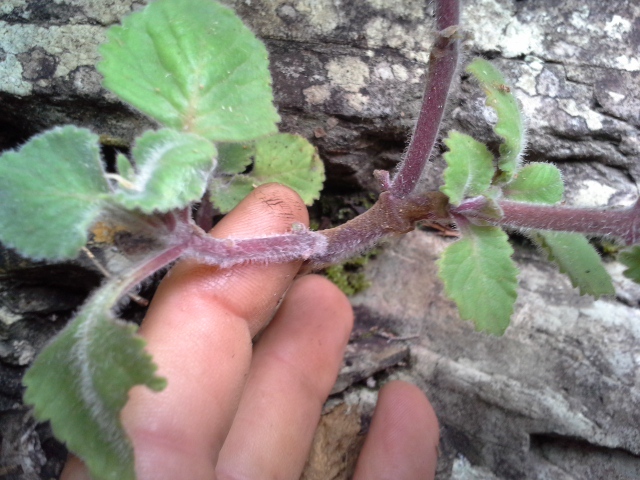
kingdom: Plantae
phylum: Tracheophyta
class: Magnoliopsida
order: Lamiales
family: Lamiaceae
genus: Aeollanthus
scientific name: Aeollanthus buchnerianus
